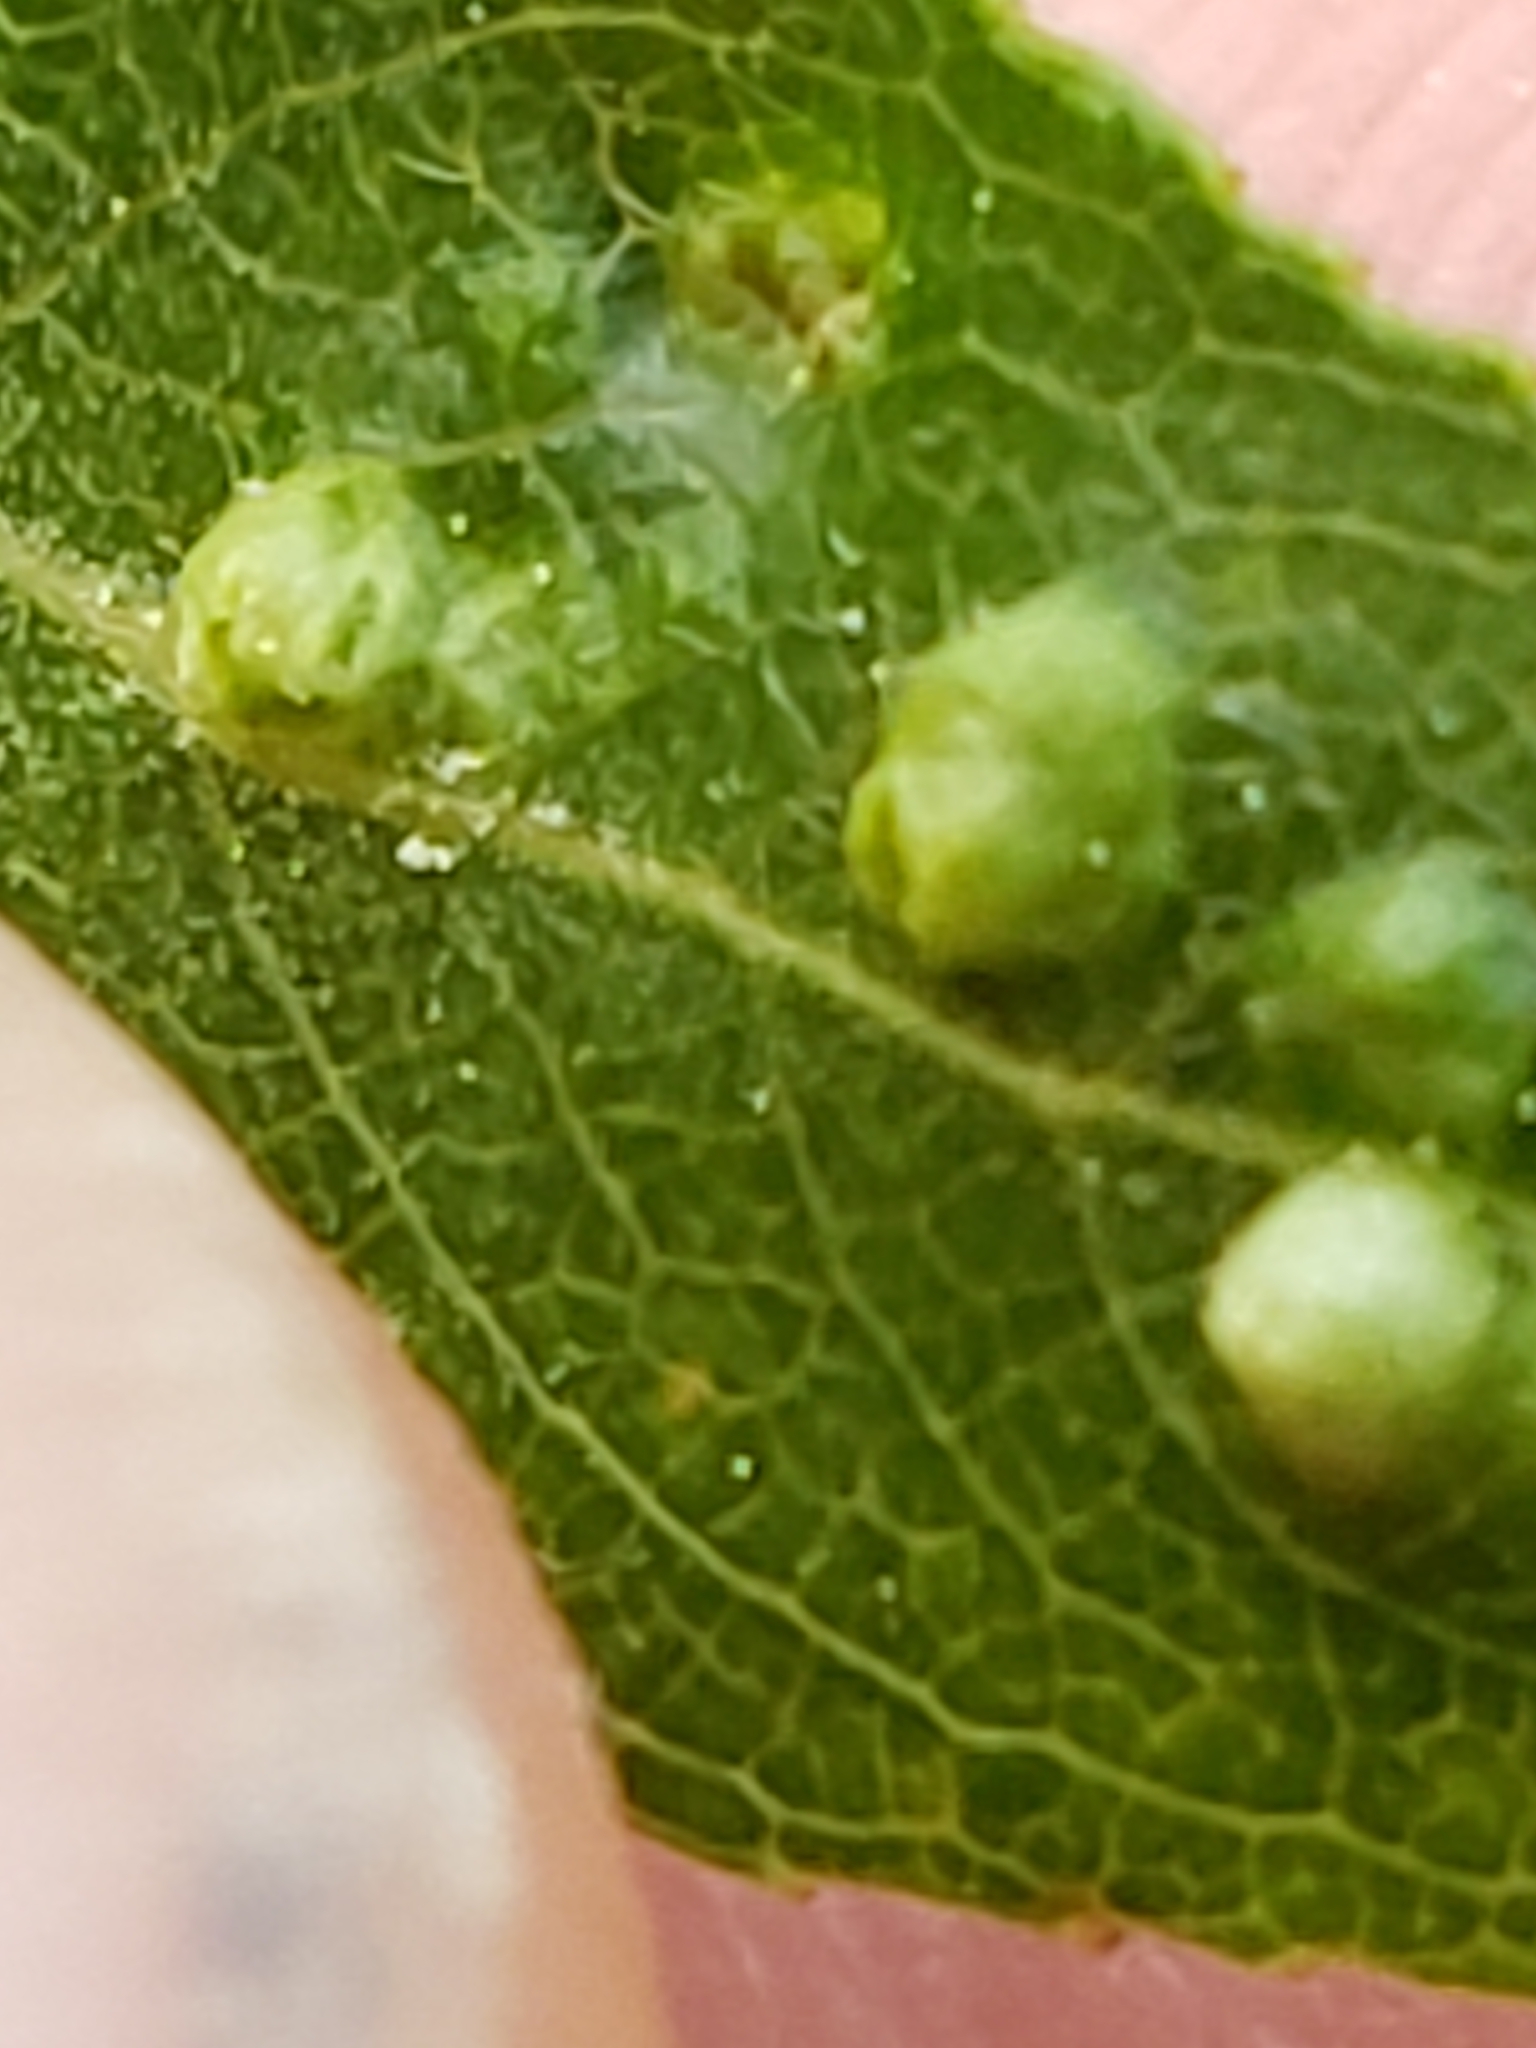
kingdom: Animalia
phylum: Arthropoda
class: Arachnida
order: Trombidiformes
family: Eriophyidae
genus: Aculus
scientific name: Aculus tetanothrix
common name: Willow bead gall mite
